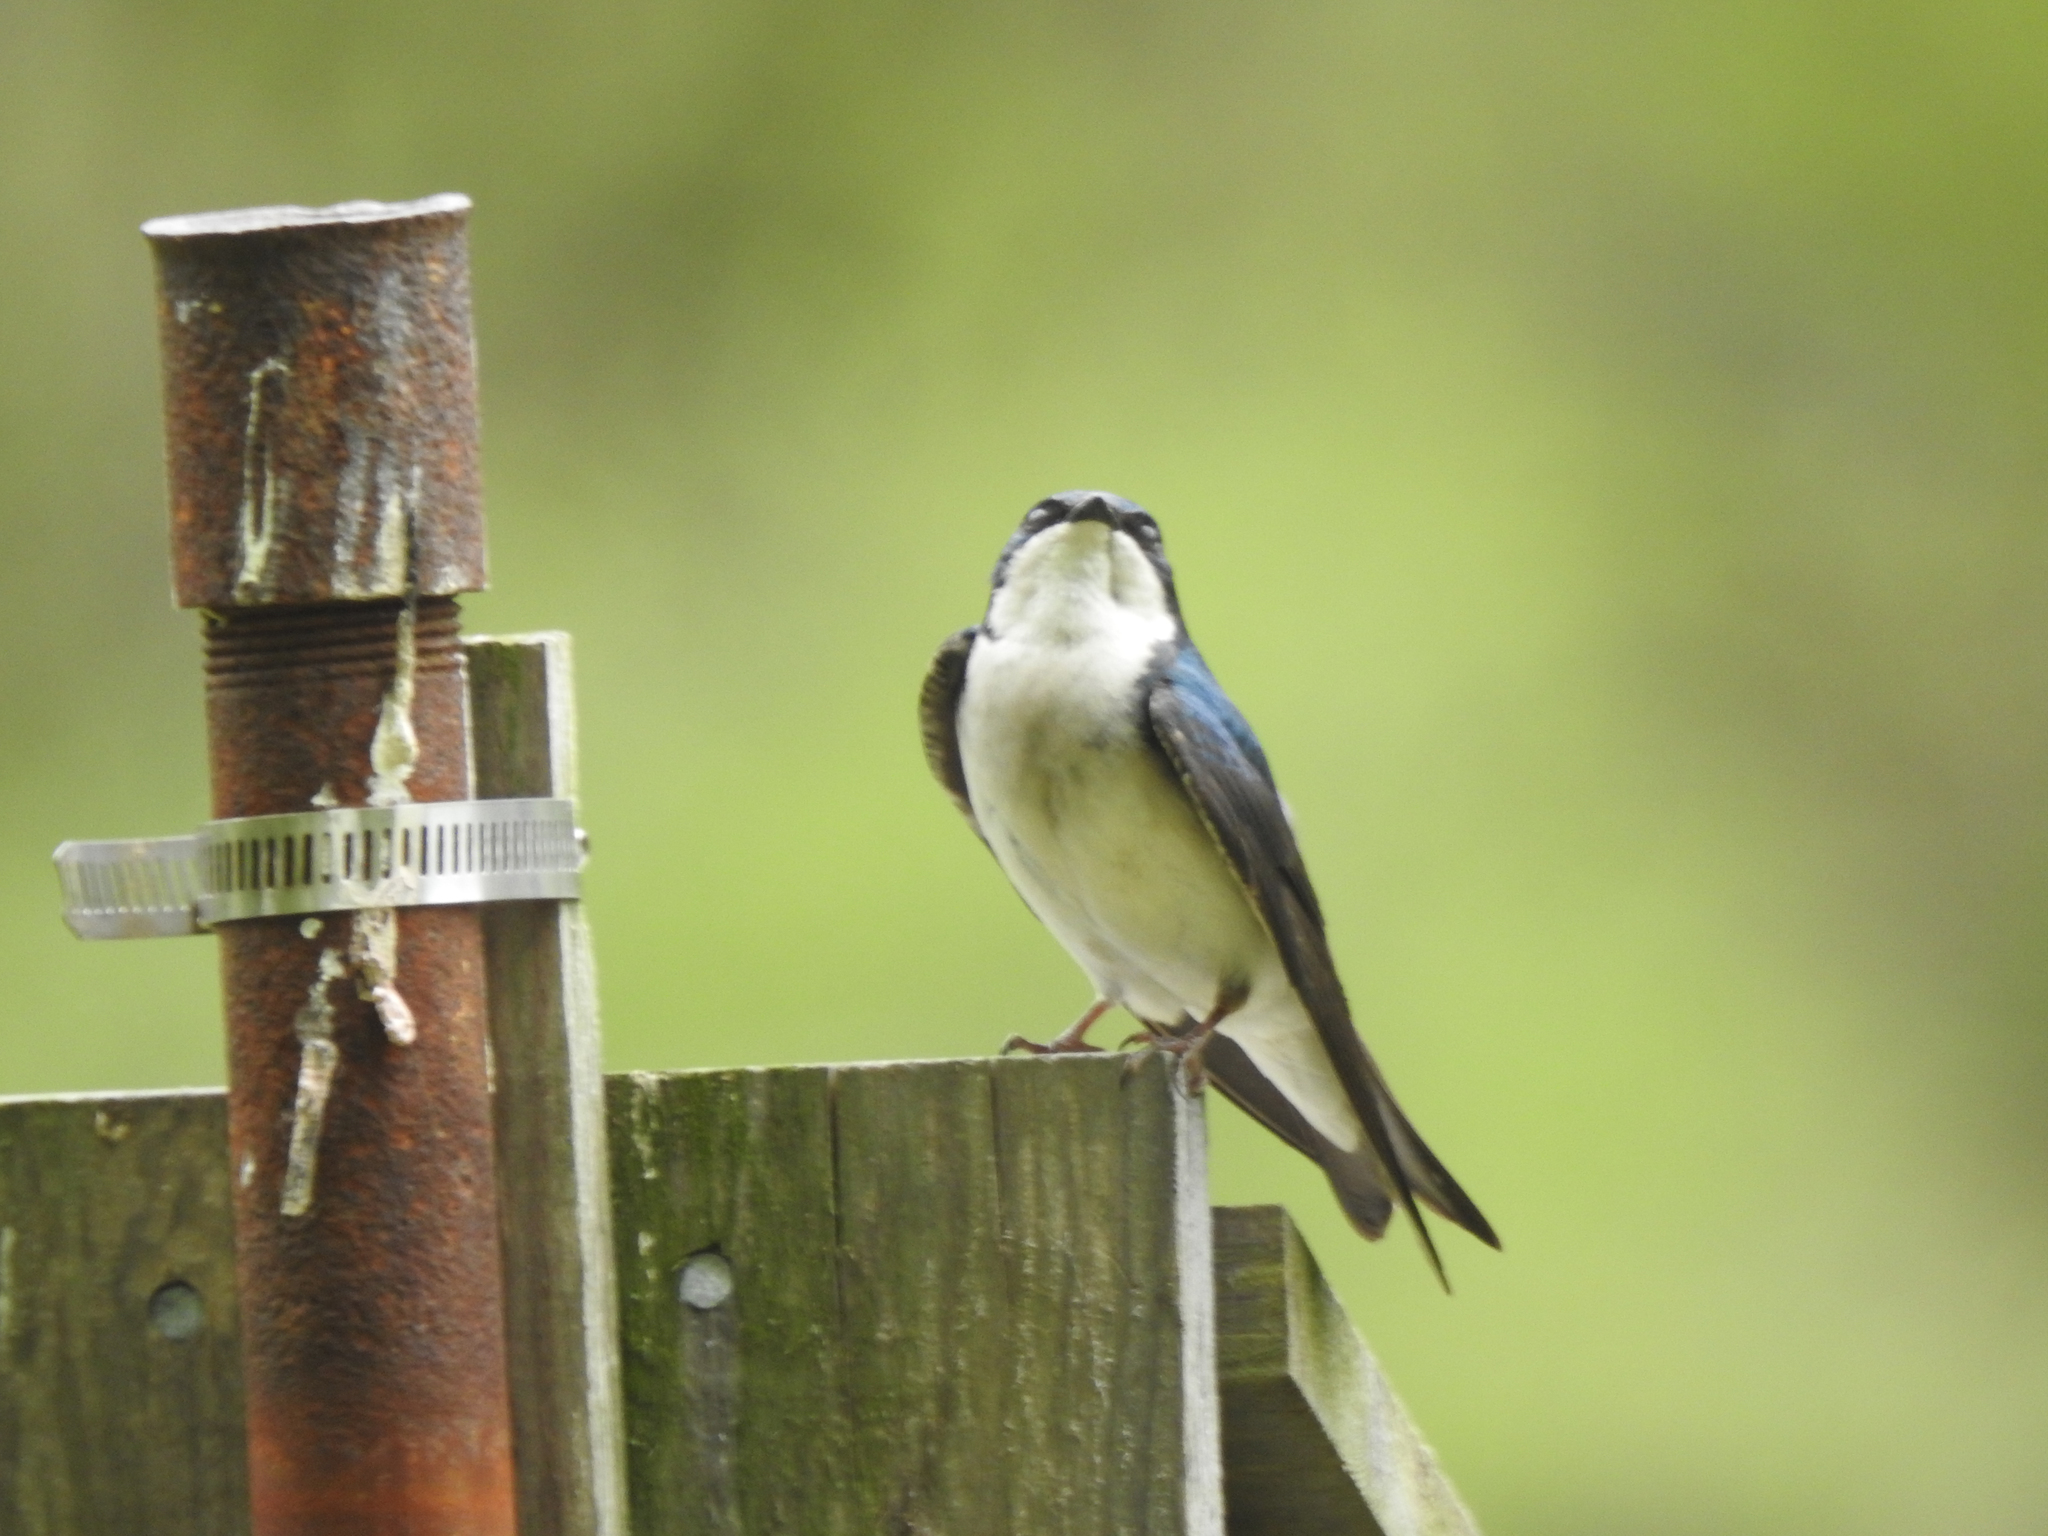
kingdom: Animalia
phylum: Chordata
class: Aves
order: Passeriformes
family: Hirundinidae
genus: Tachycineta
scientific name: Tachycineta bicolor
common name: Tree swallow
